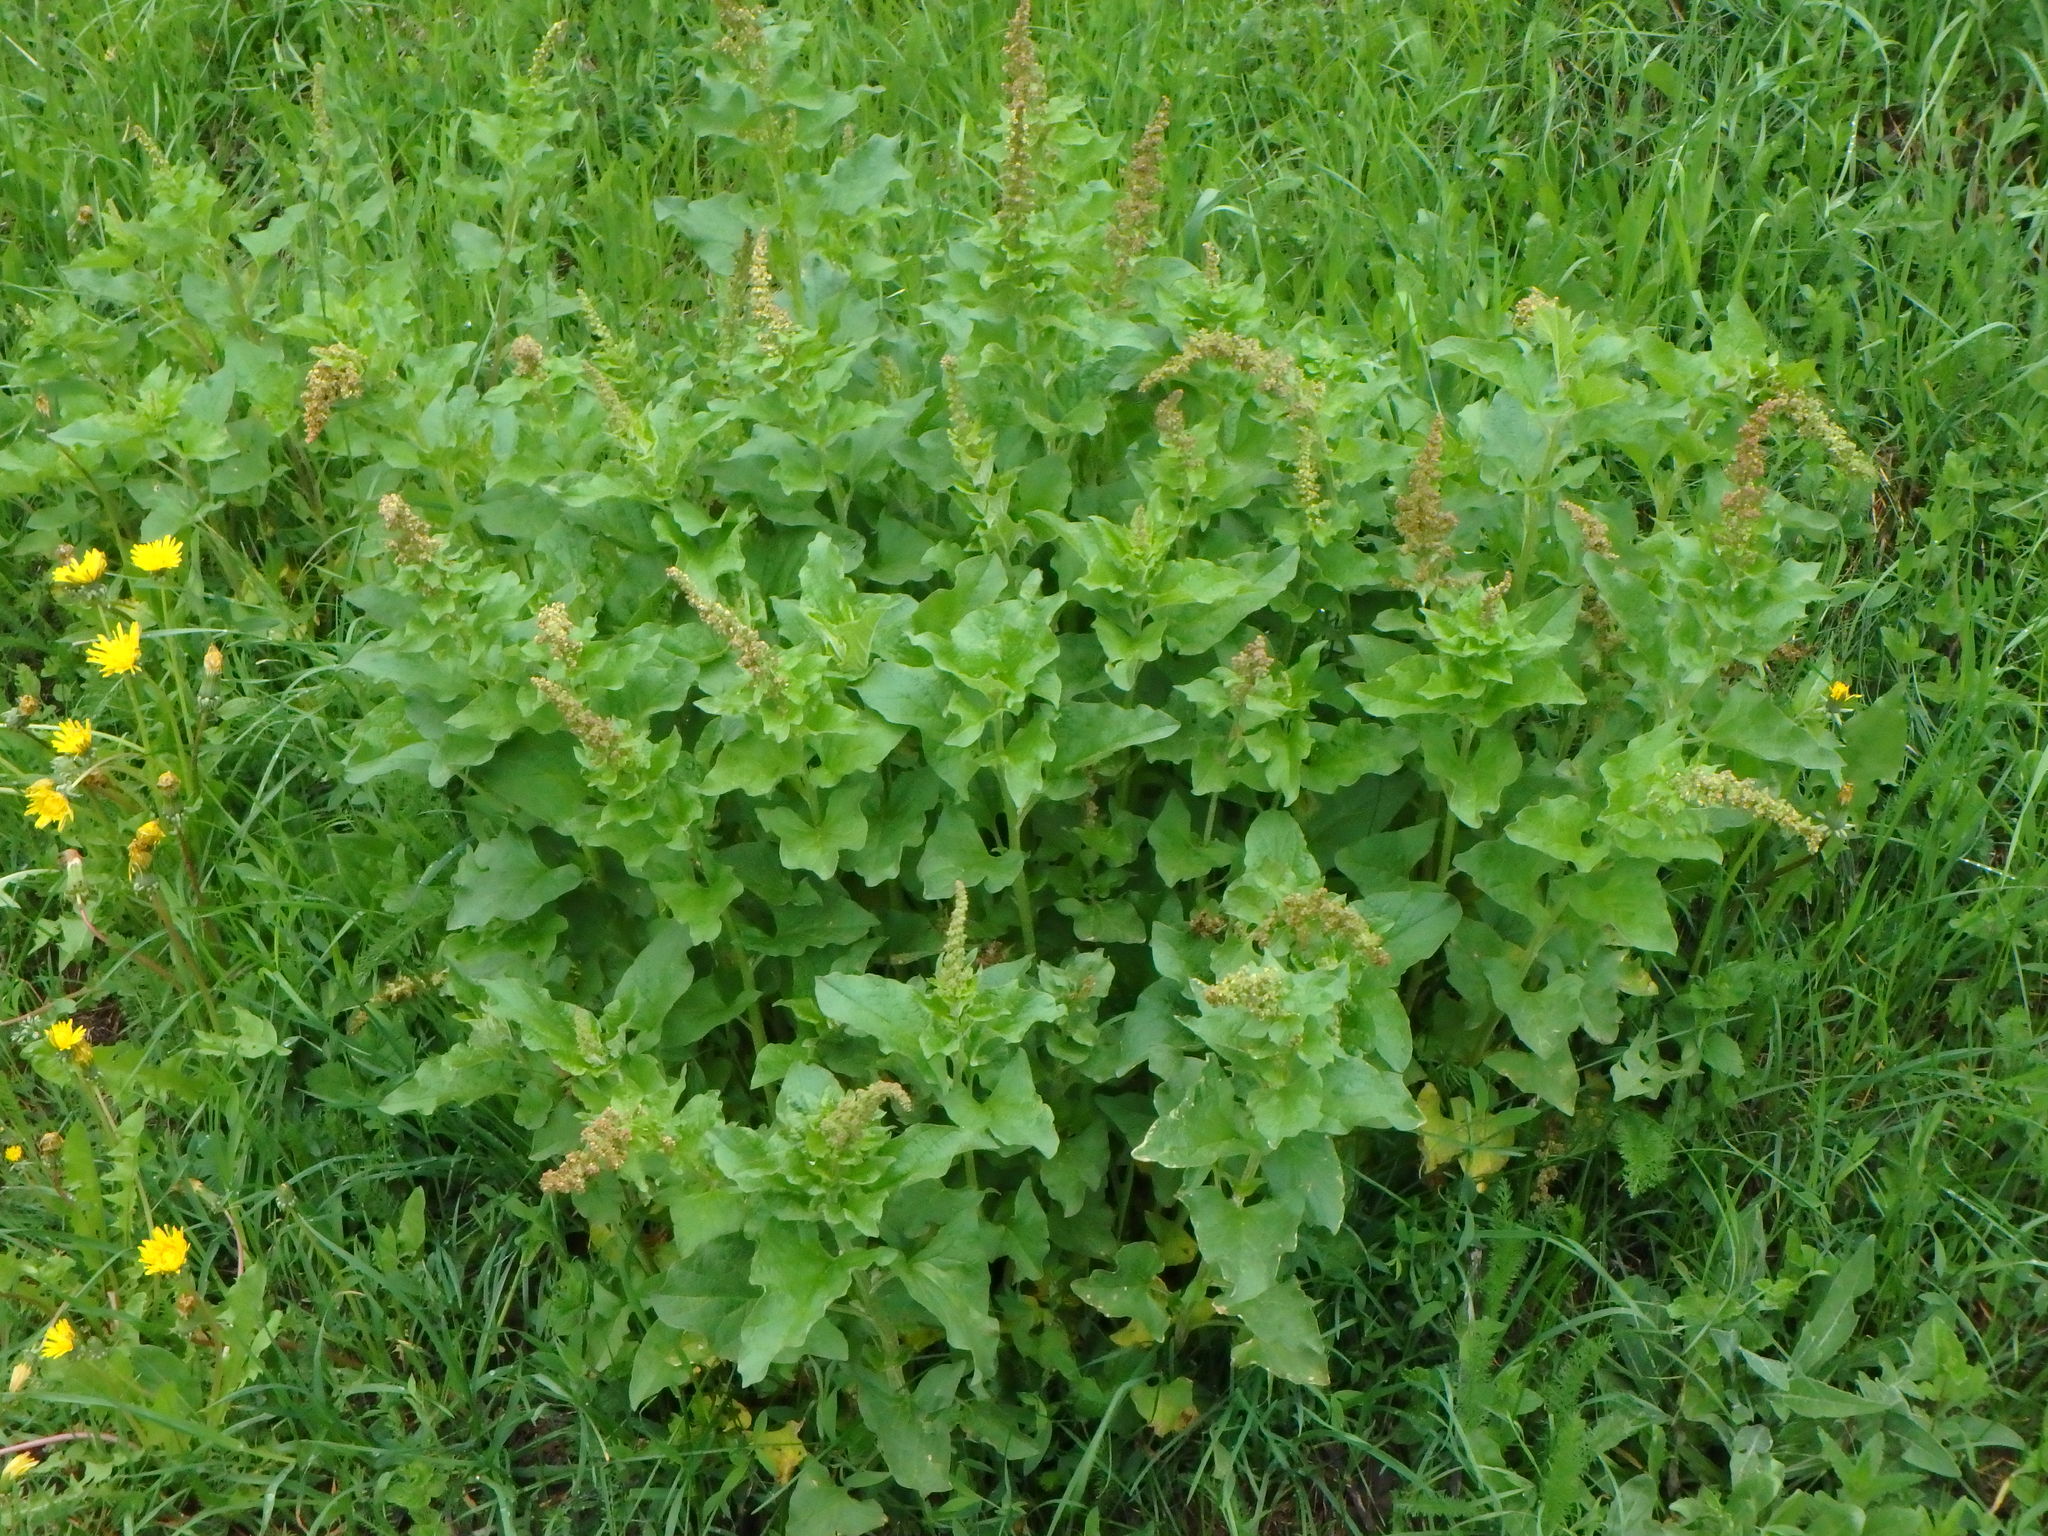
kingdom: Plantae
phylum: Tracheophyta
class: Magnoliopsida
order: Caryophyllales
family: Amaranthaceae
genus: Blitum
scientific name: Blitum bonus-henricus
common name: Good king henry
